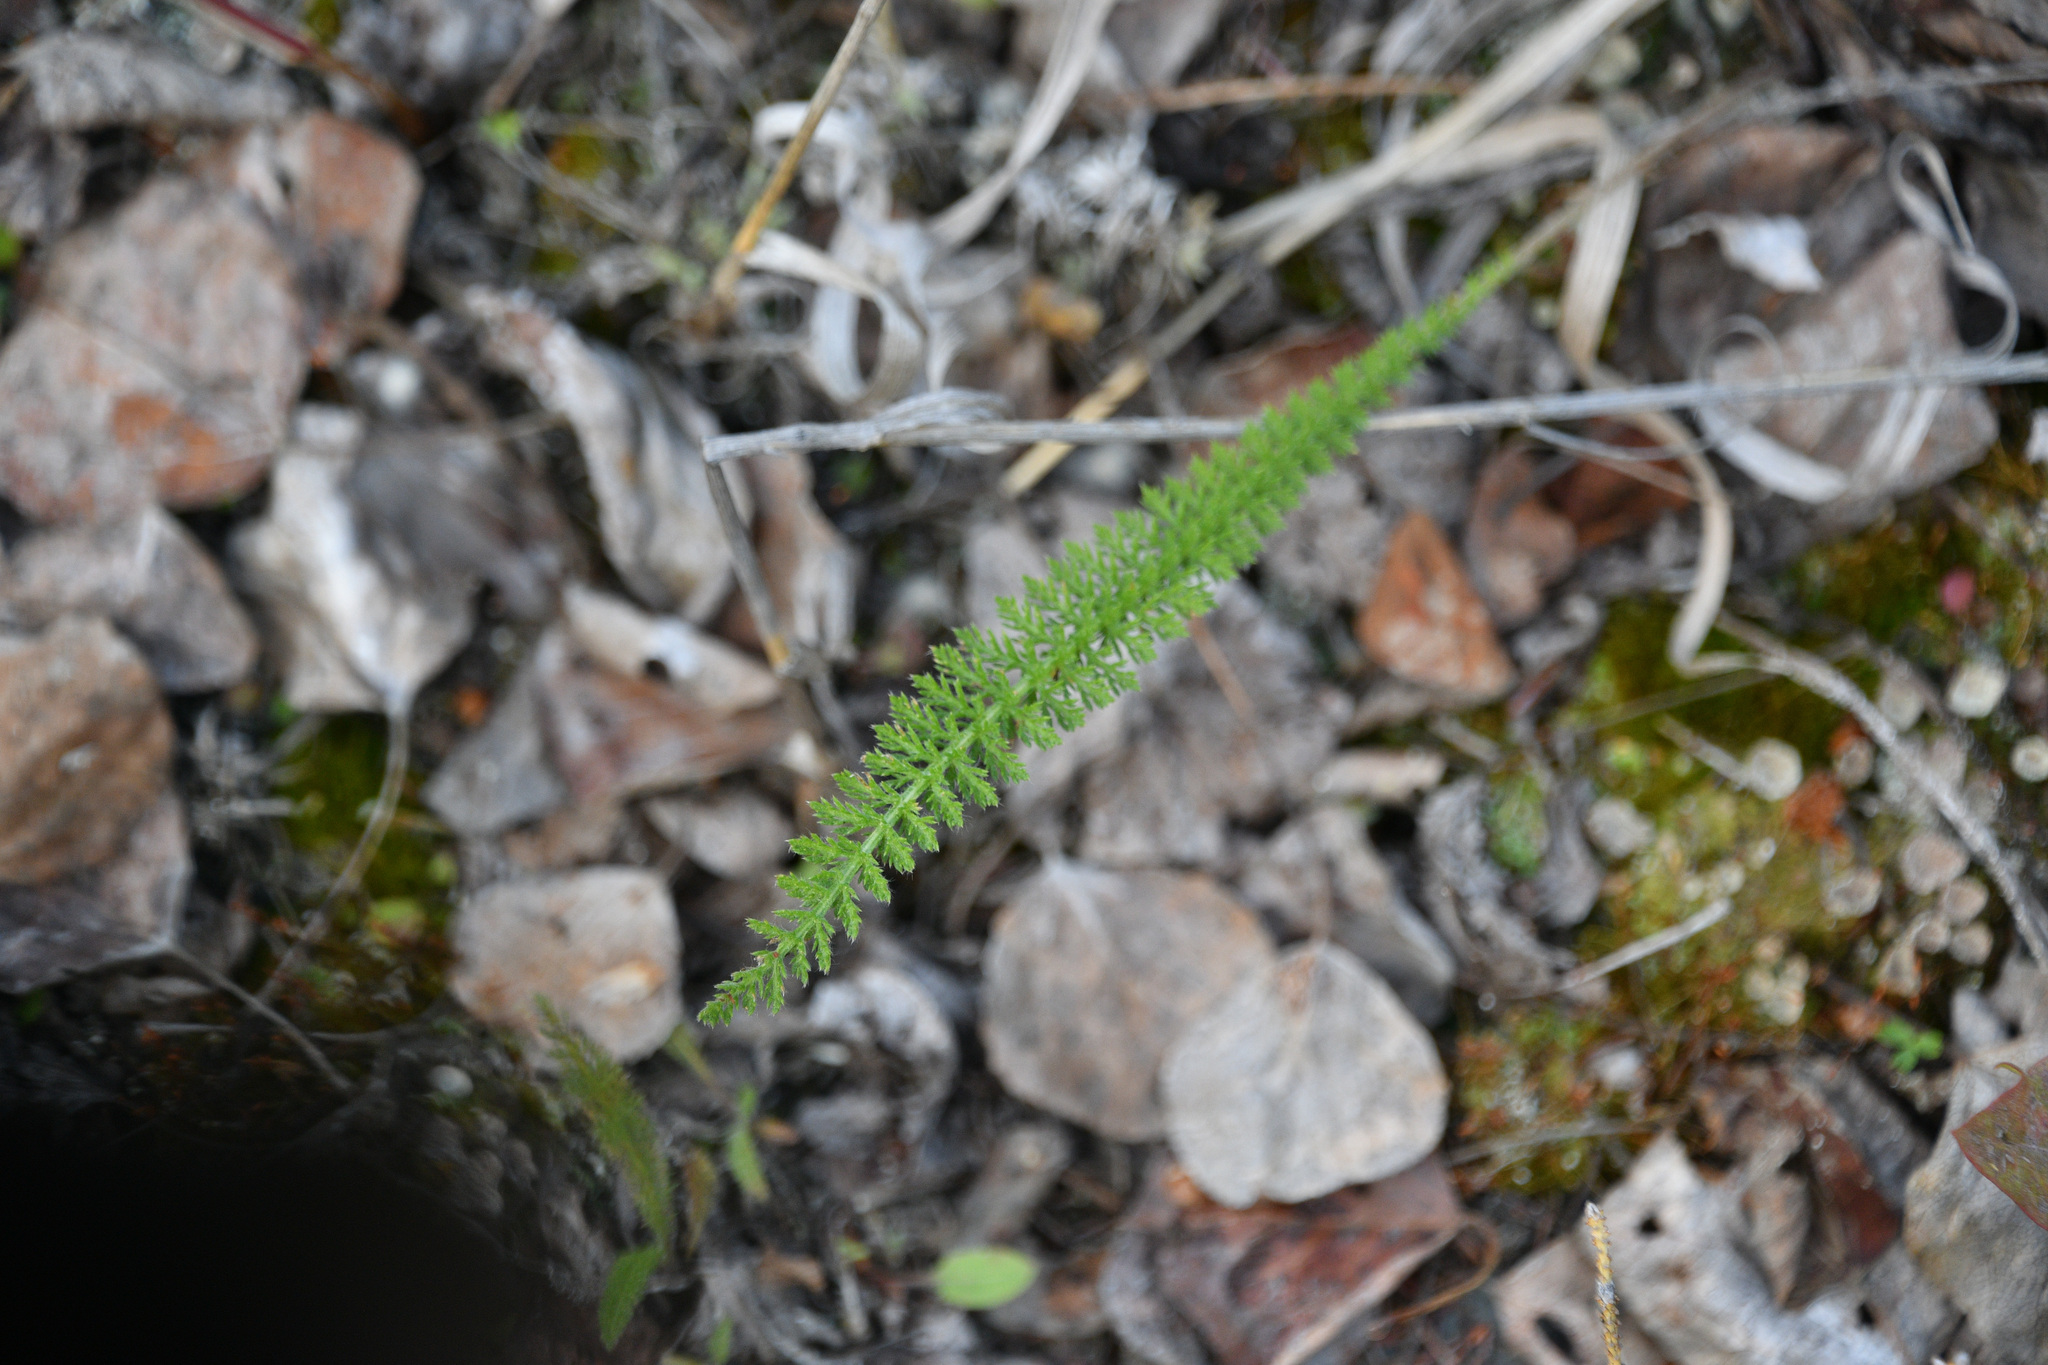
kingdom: Plantae
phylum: Tracheophyta
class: Magnoliopsida
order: Asterales
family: Asteraceae
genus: Achillea
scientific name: Achillea millefolium
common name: Yarrow
